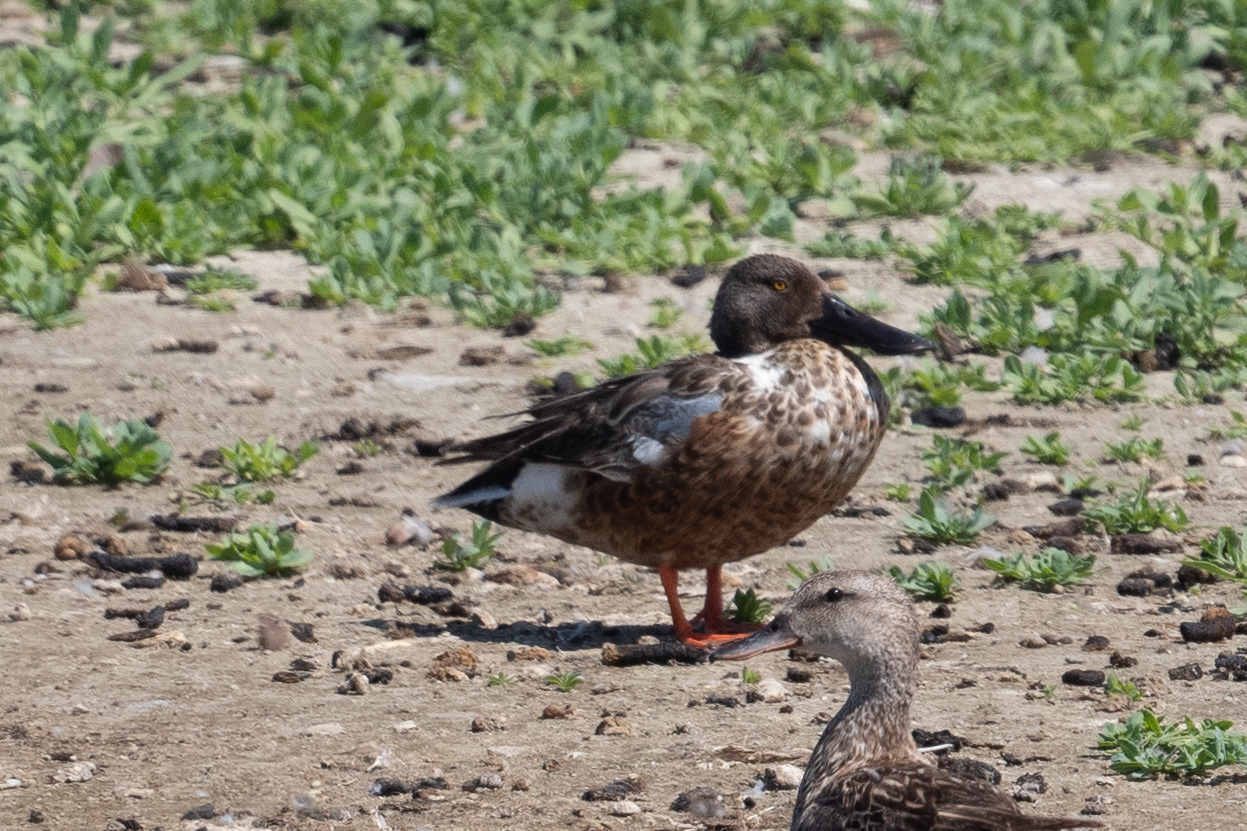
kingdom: Animalia
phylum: Chordata
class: Aves
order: Anseriformes
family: Anatidae
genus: Spatula
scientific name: Spatula clypeata
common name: Northern shoveler
